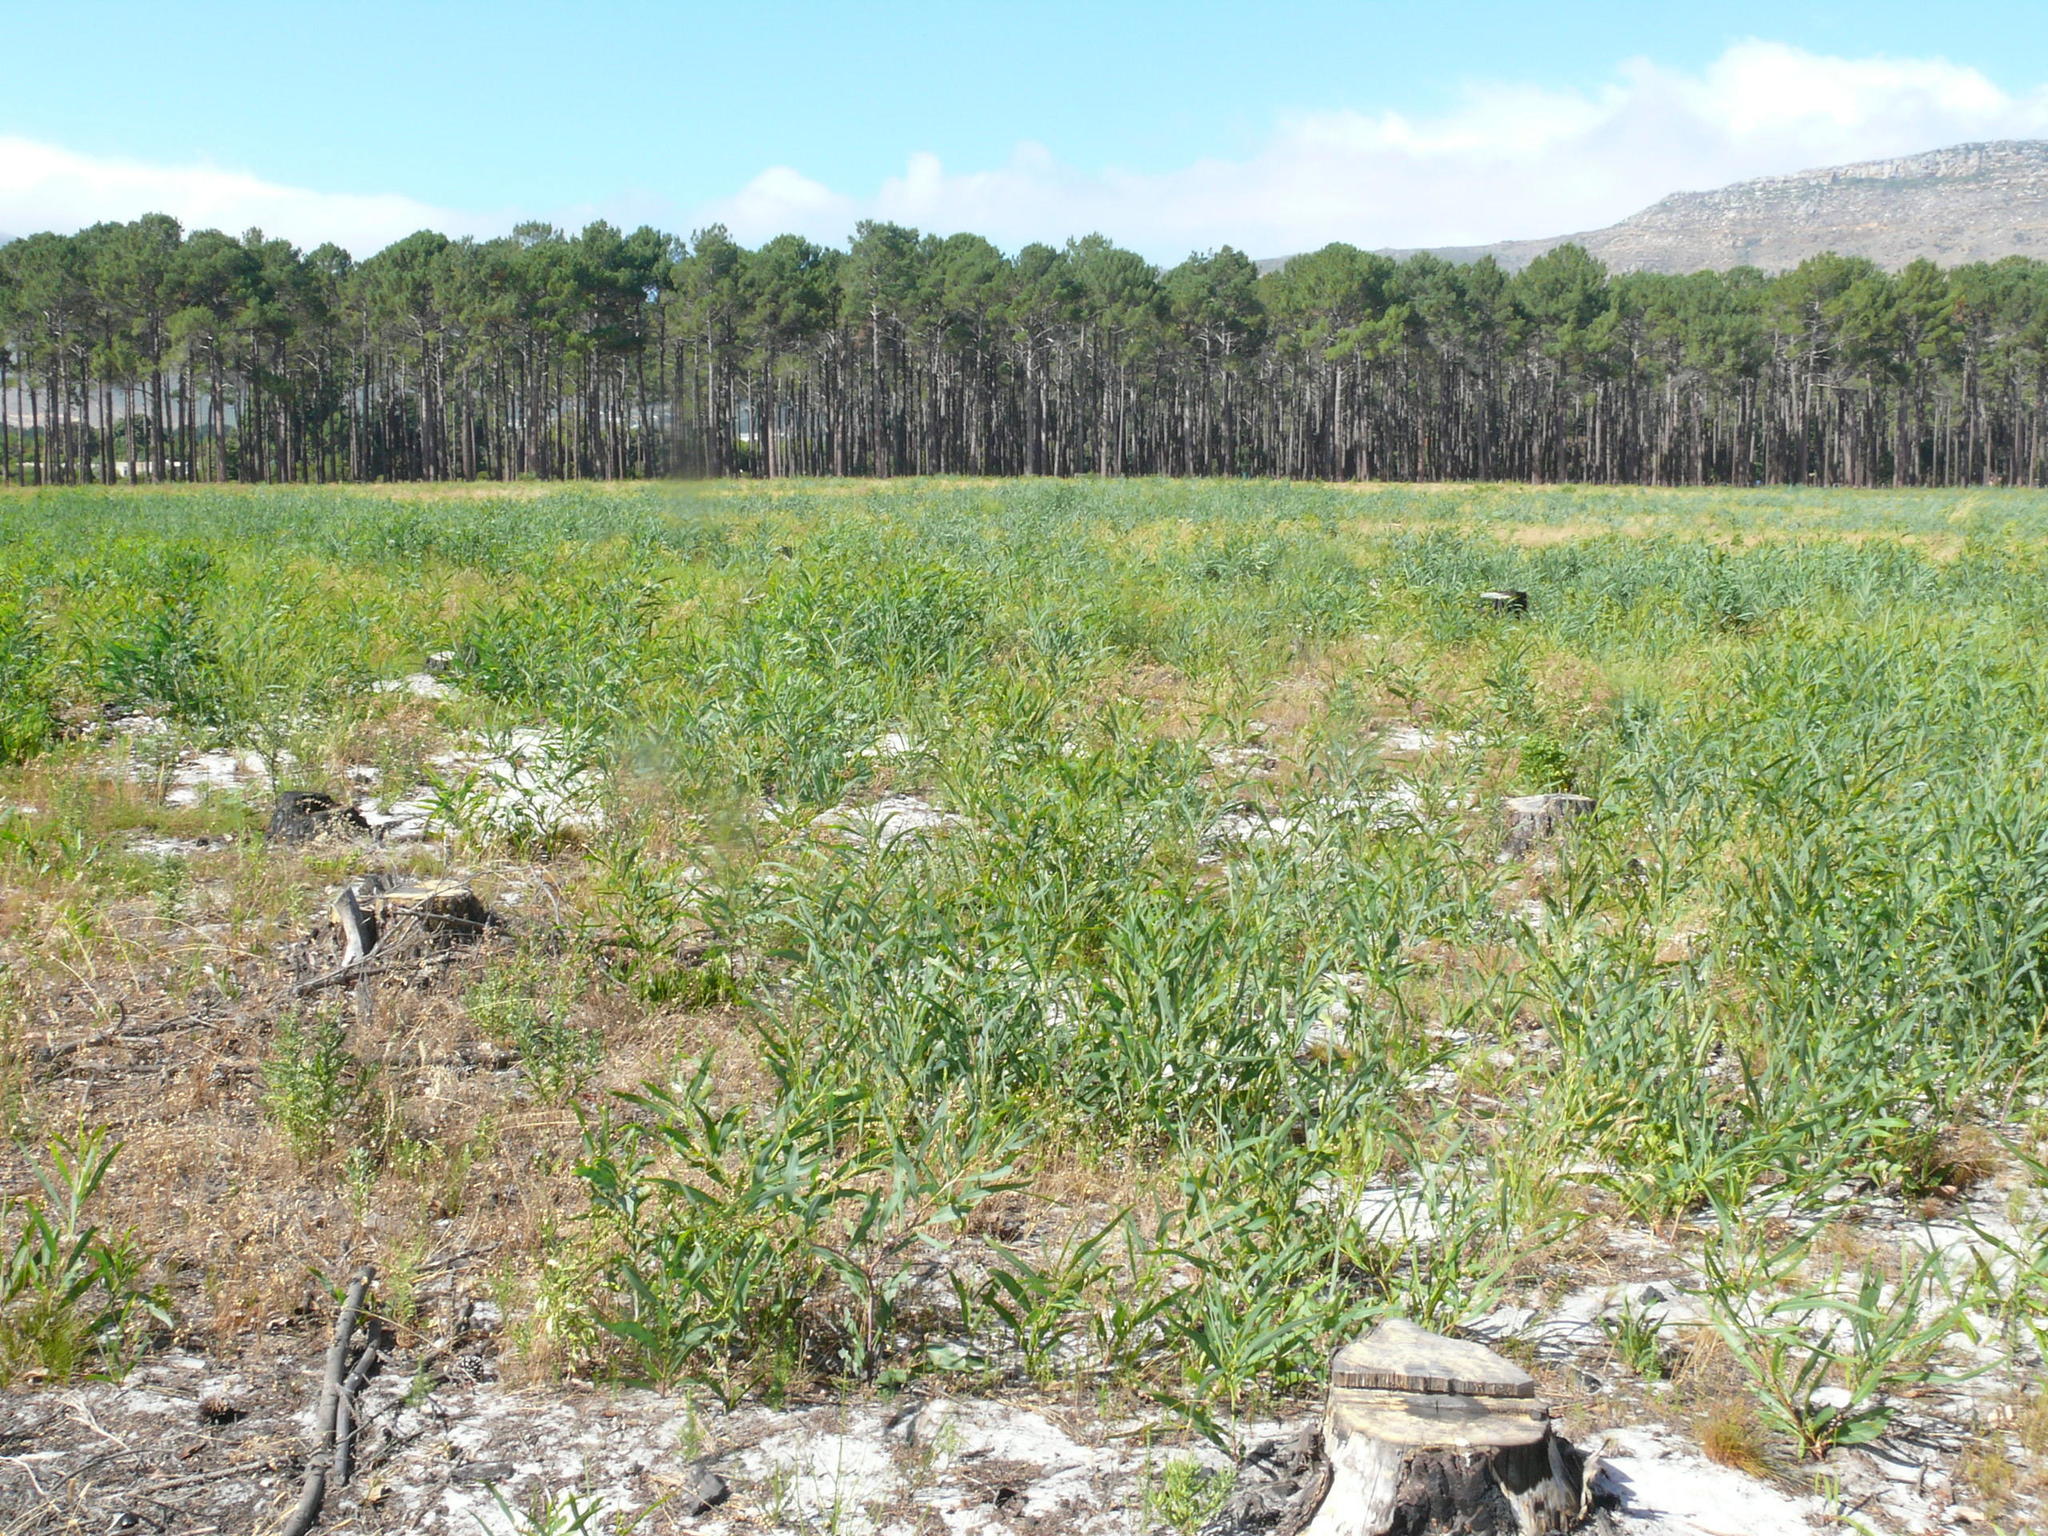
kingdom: Plantae
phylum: Tracheophyta
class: Magnoliopsida
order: Fabales
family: Fabaceae
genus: Acacia
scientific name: Acacia saligna
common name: Orange wattle
